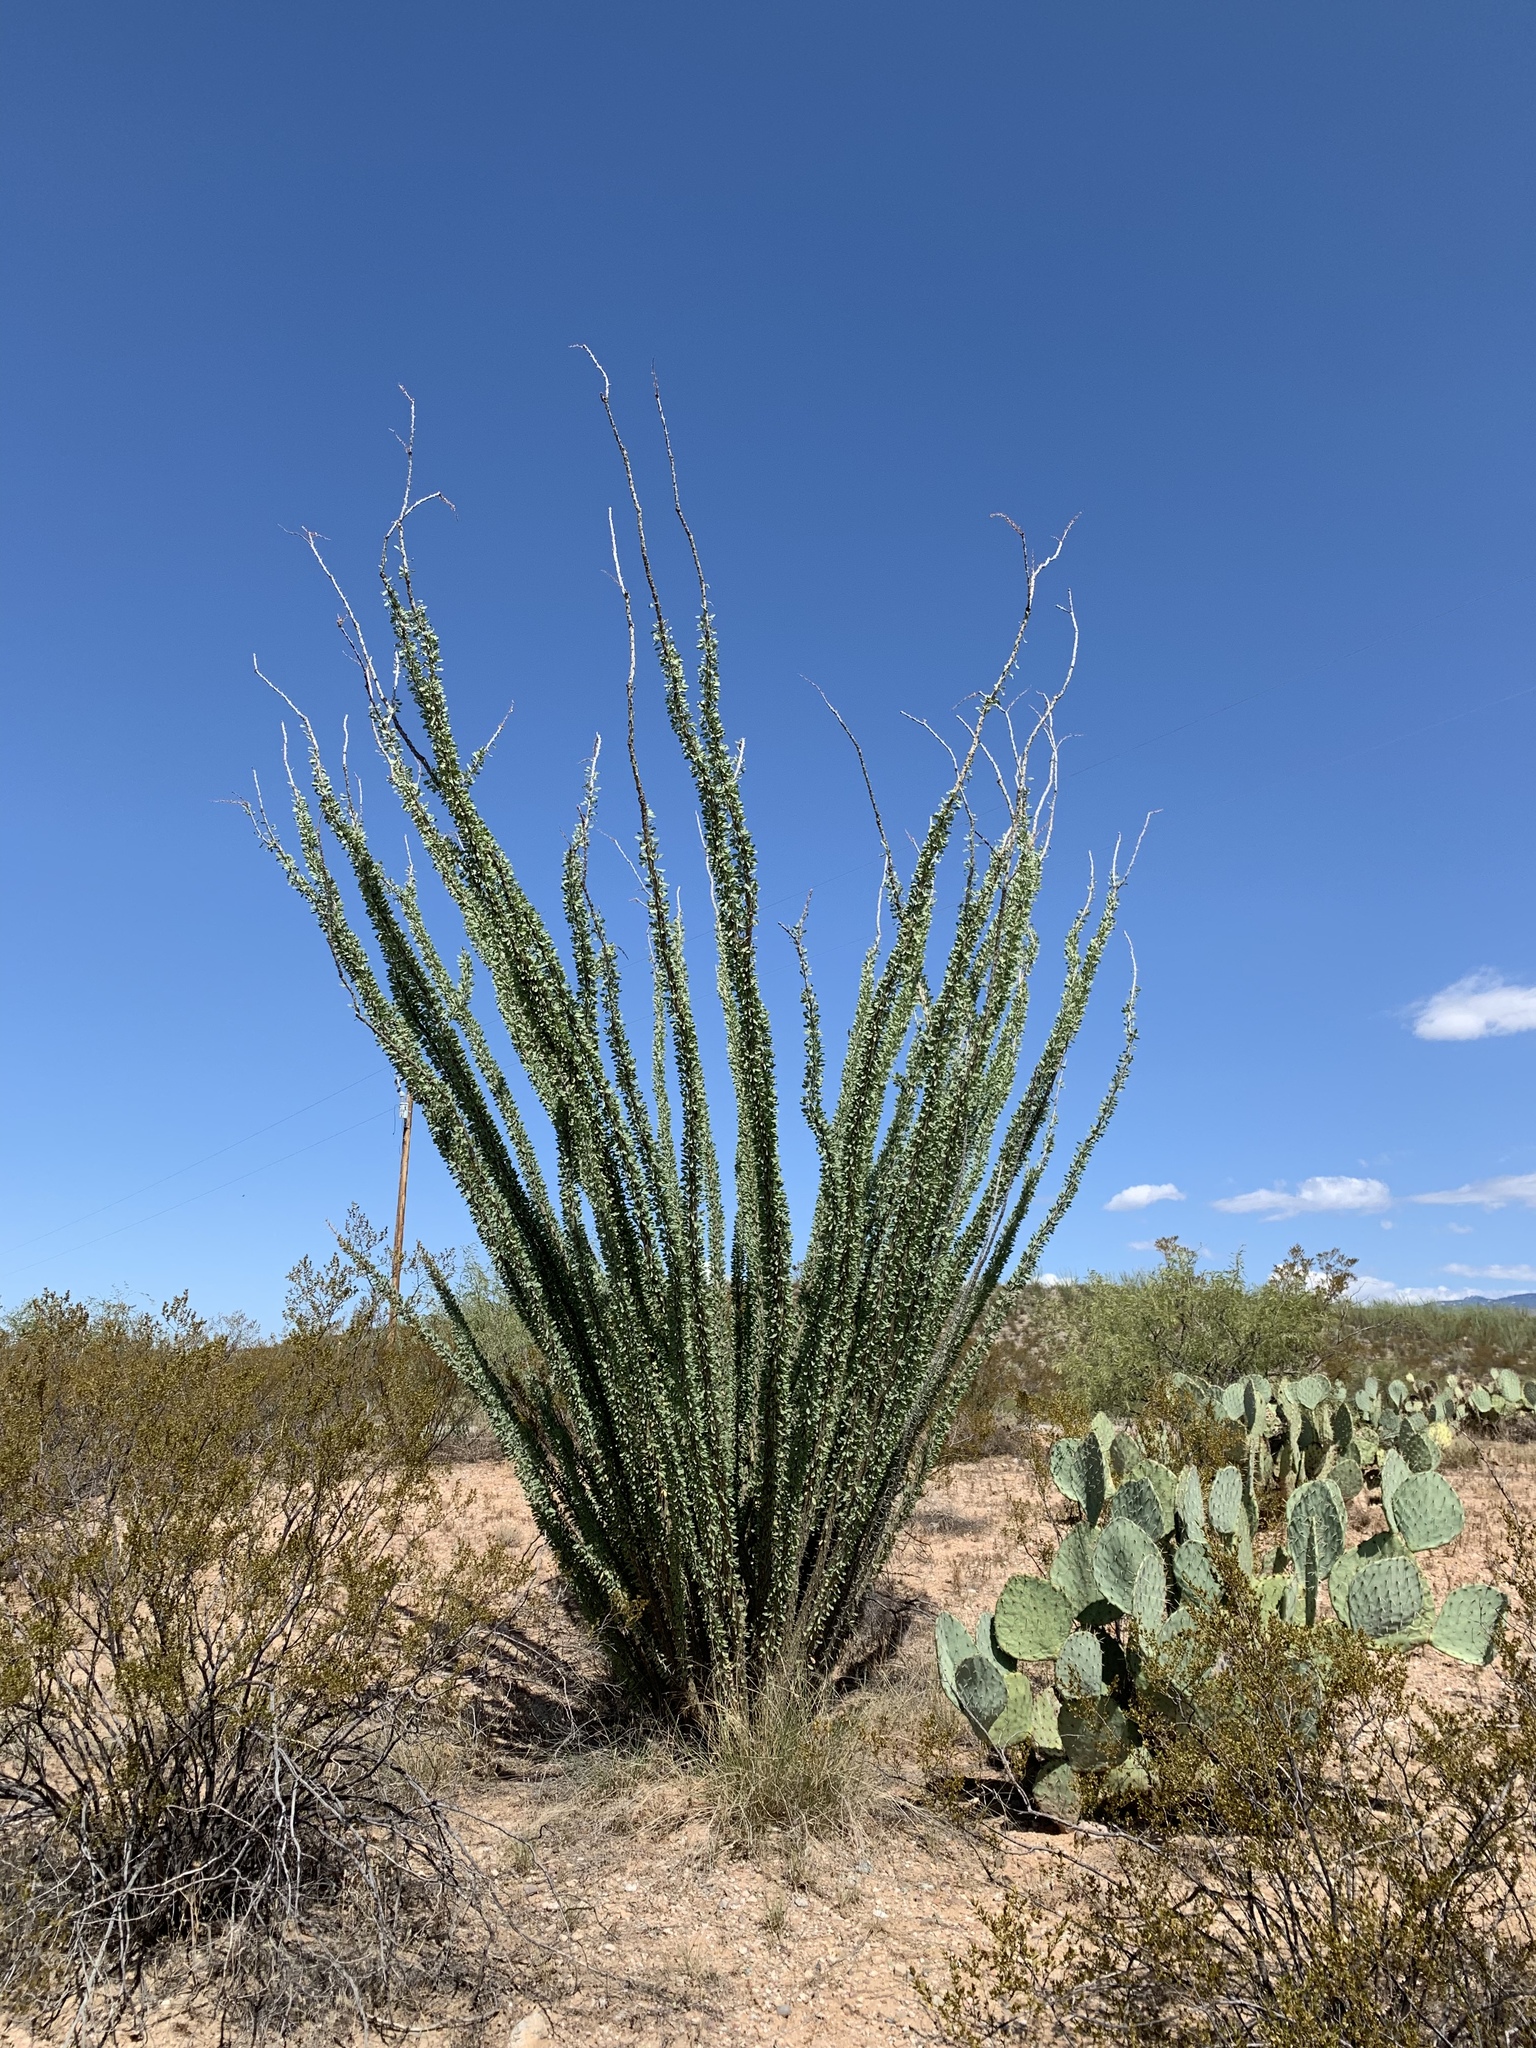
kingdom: Plantae
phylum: Tracheophyta
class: Magnoliopsida
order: Ericales
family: Fouquieriaceae
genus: Fouquieria
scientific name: Fouquieria splendens
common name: Vine-cactus
